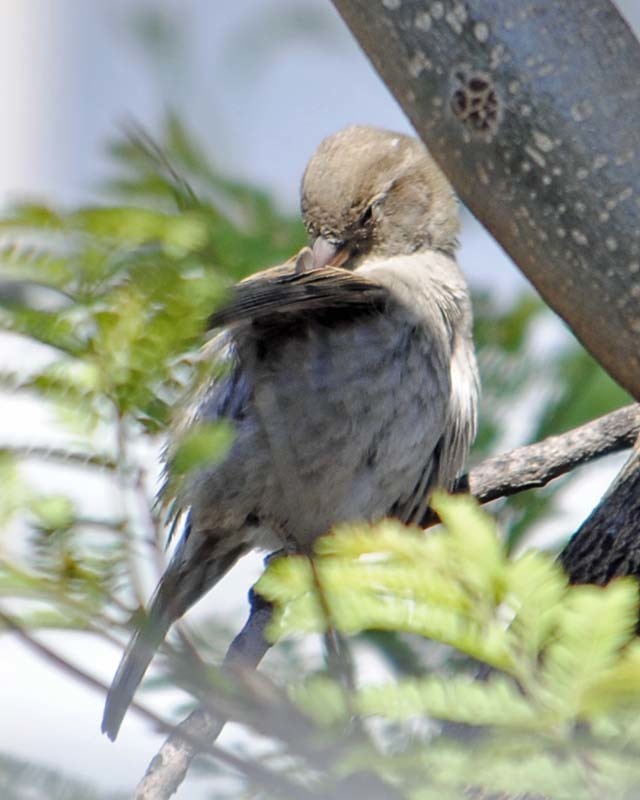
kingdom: Animalia
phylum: Chordata
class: Aves
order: Passeriformes
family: Passeridae
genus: Passer
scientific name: Passer domesticus
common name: House sparrow
